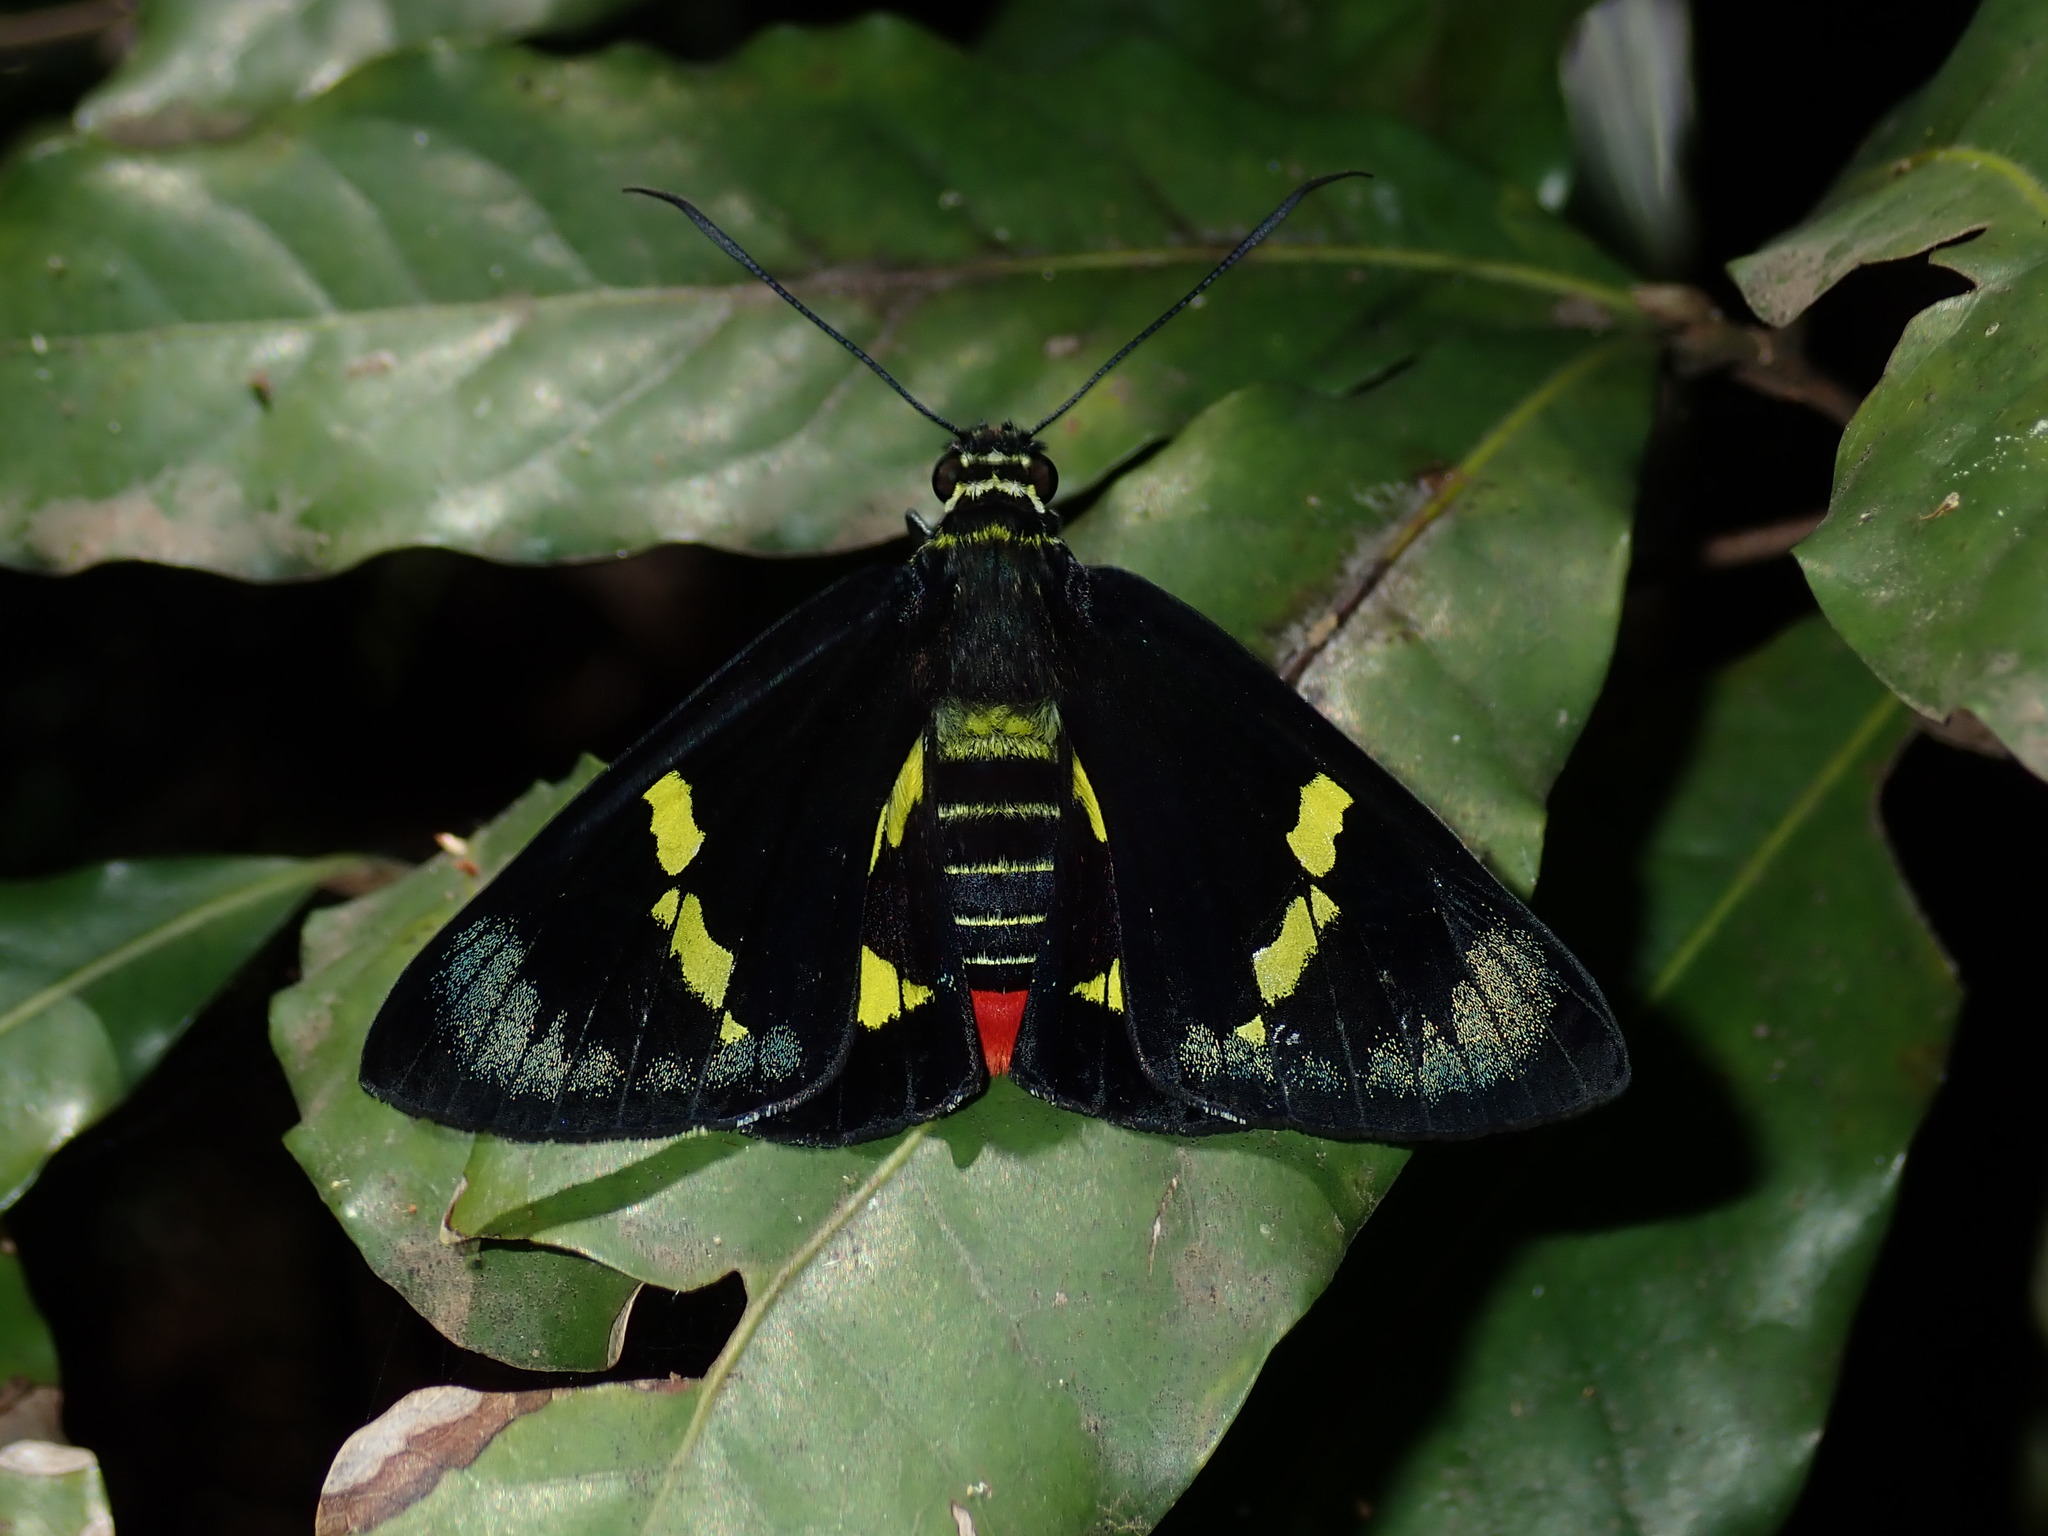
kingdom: Animalia
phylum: Arthropoda
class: Insecta
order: Lepidoptera
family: Hesperiidae
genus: Euschemon
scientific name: Euschemon rafflesia
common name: Regent skipper
